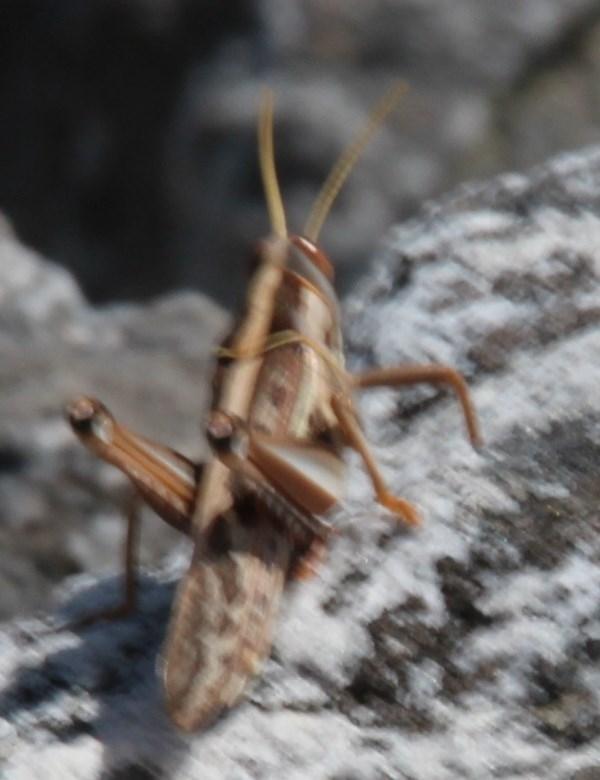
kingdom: Animalia
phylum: Arthropoda
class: Insecta
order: Orthoptera
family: Acrididae
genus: Cyrtacanthacris
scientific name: Cyrtacanthacris tatarica
